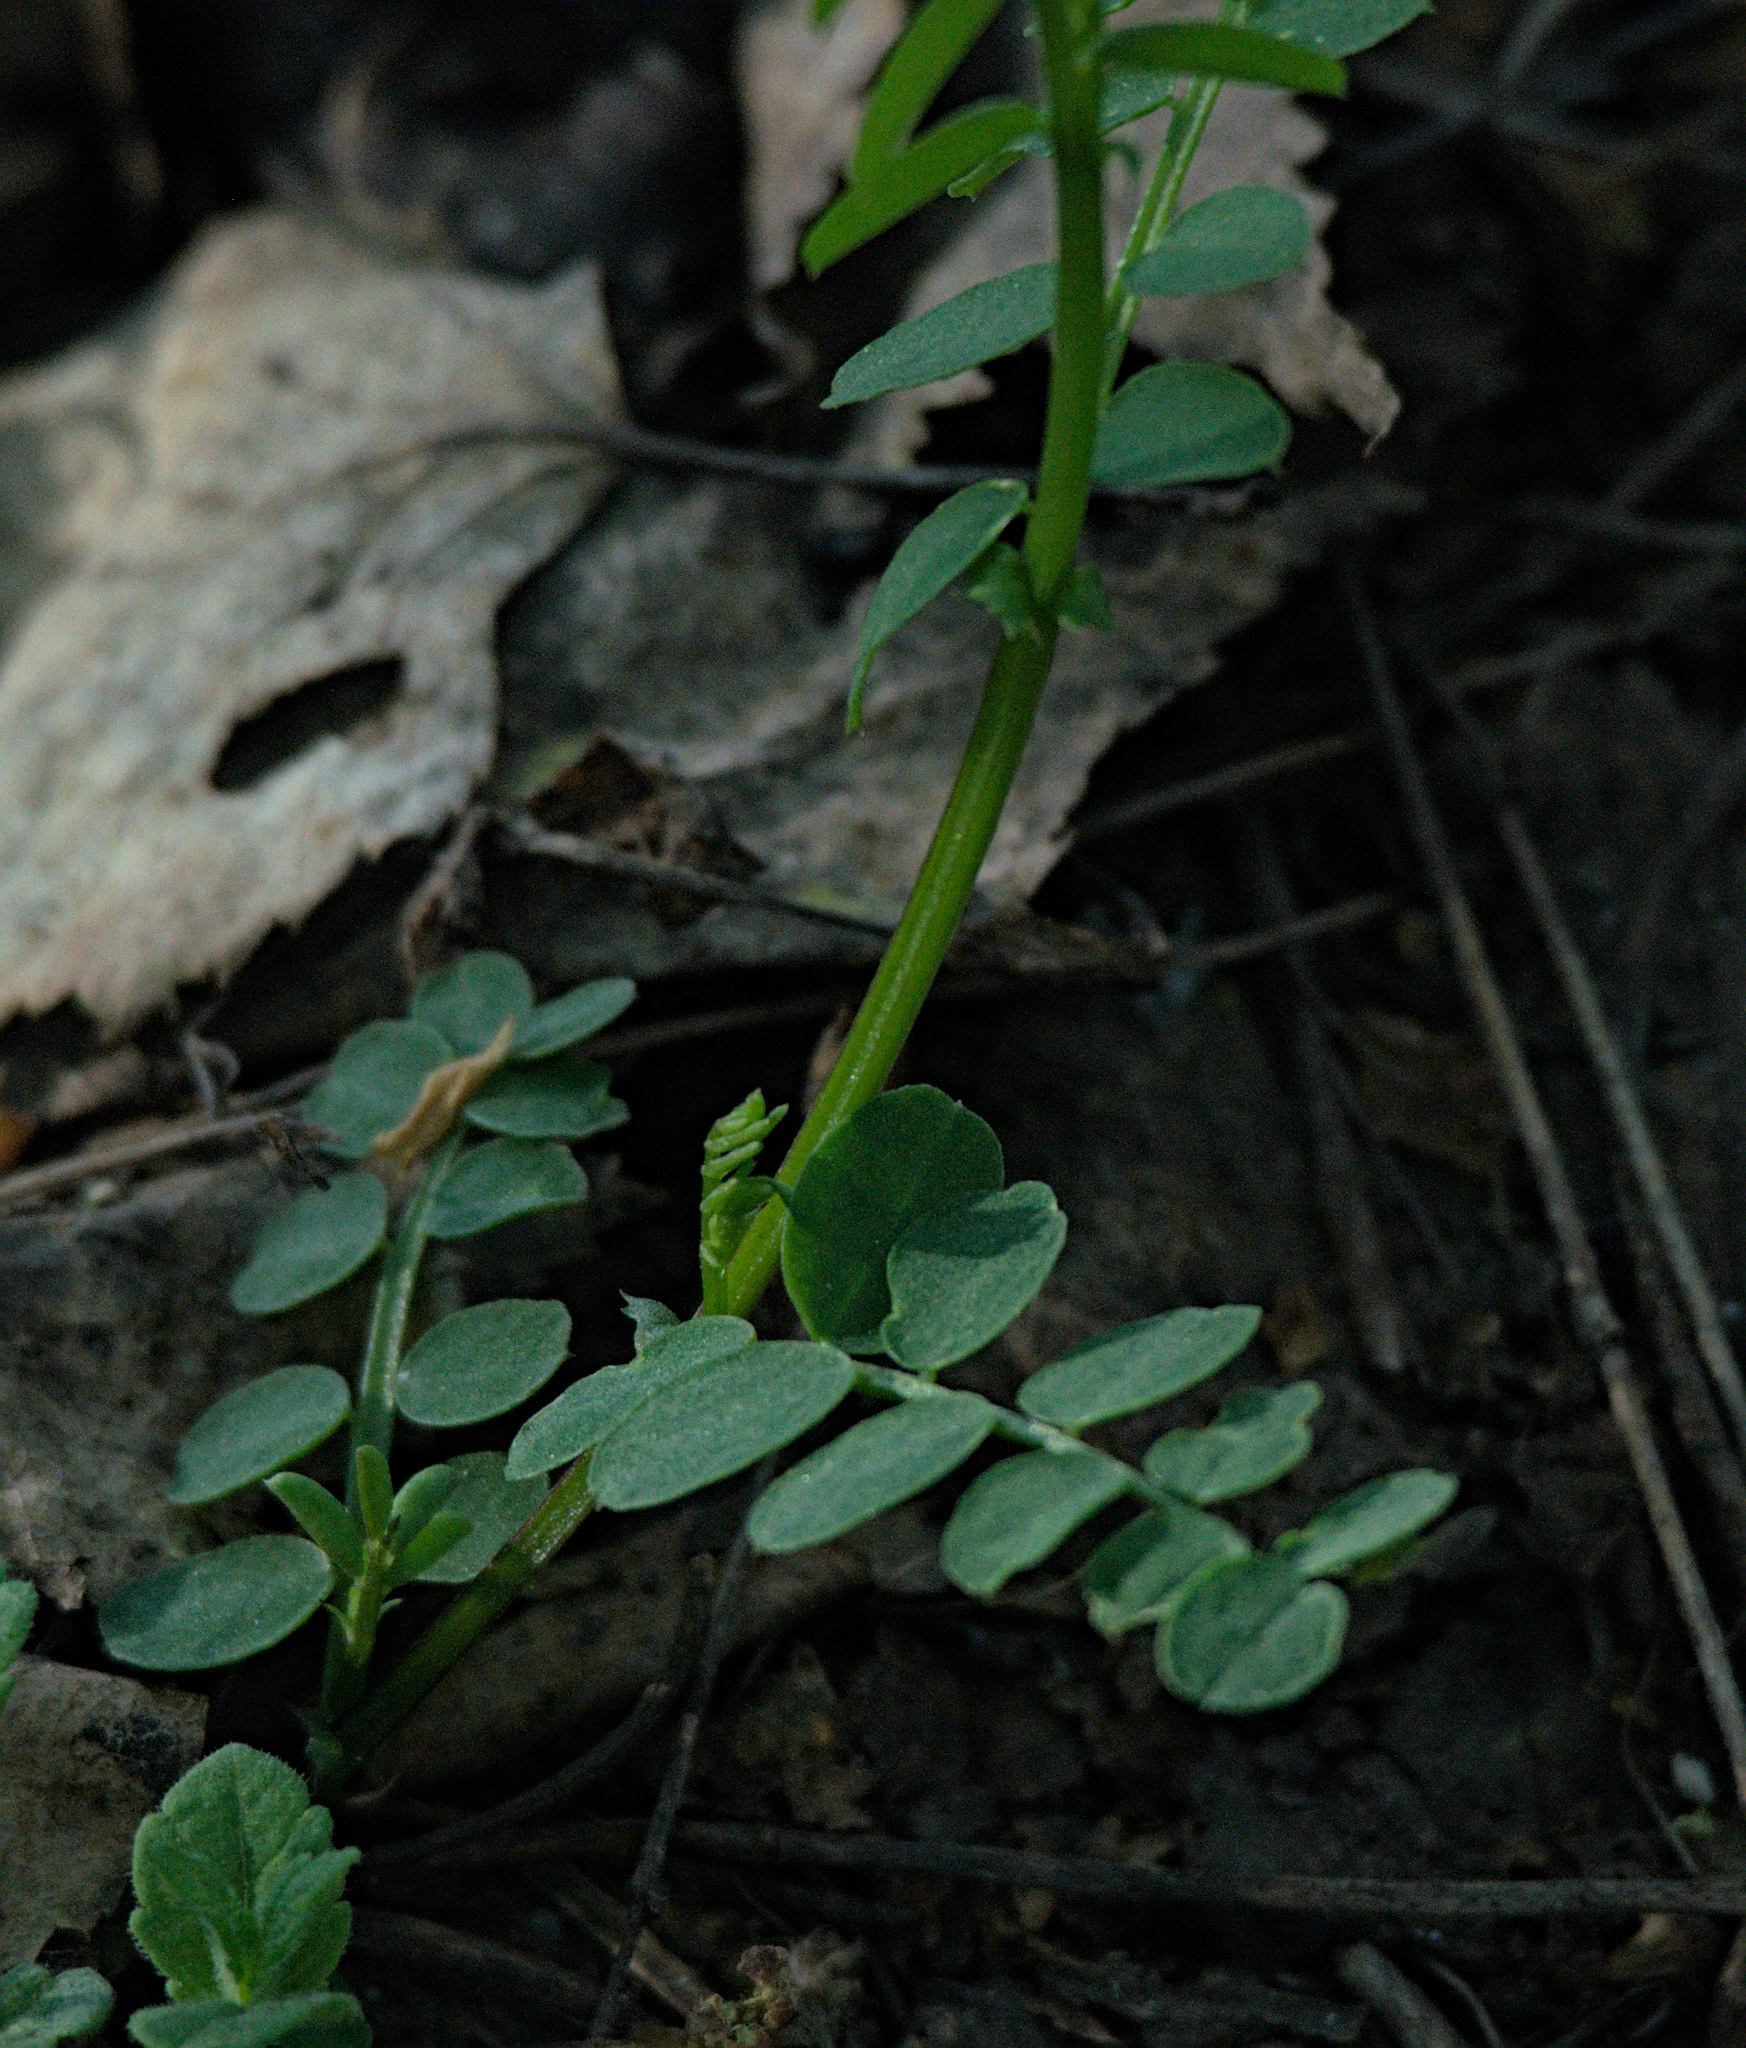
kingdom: Plantae
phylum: Tracheophyta
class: Magnoliopsida
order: Fabales
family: Fabaceae
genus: Vicia
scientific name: Vicia sylvatica
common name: Wood vetch
